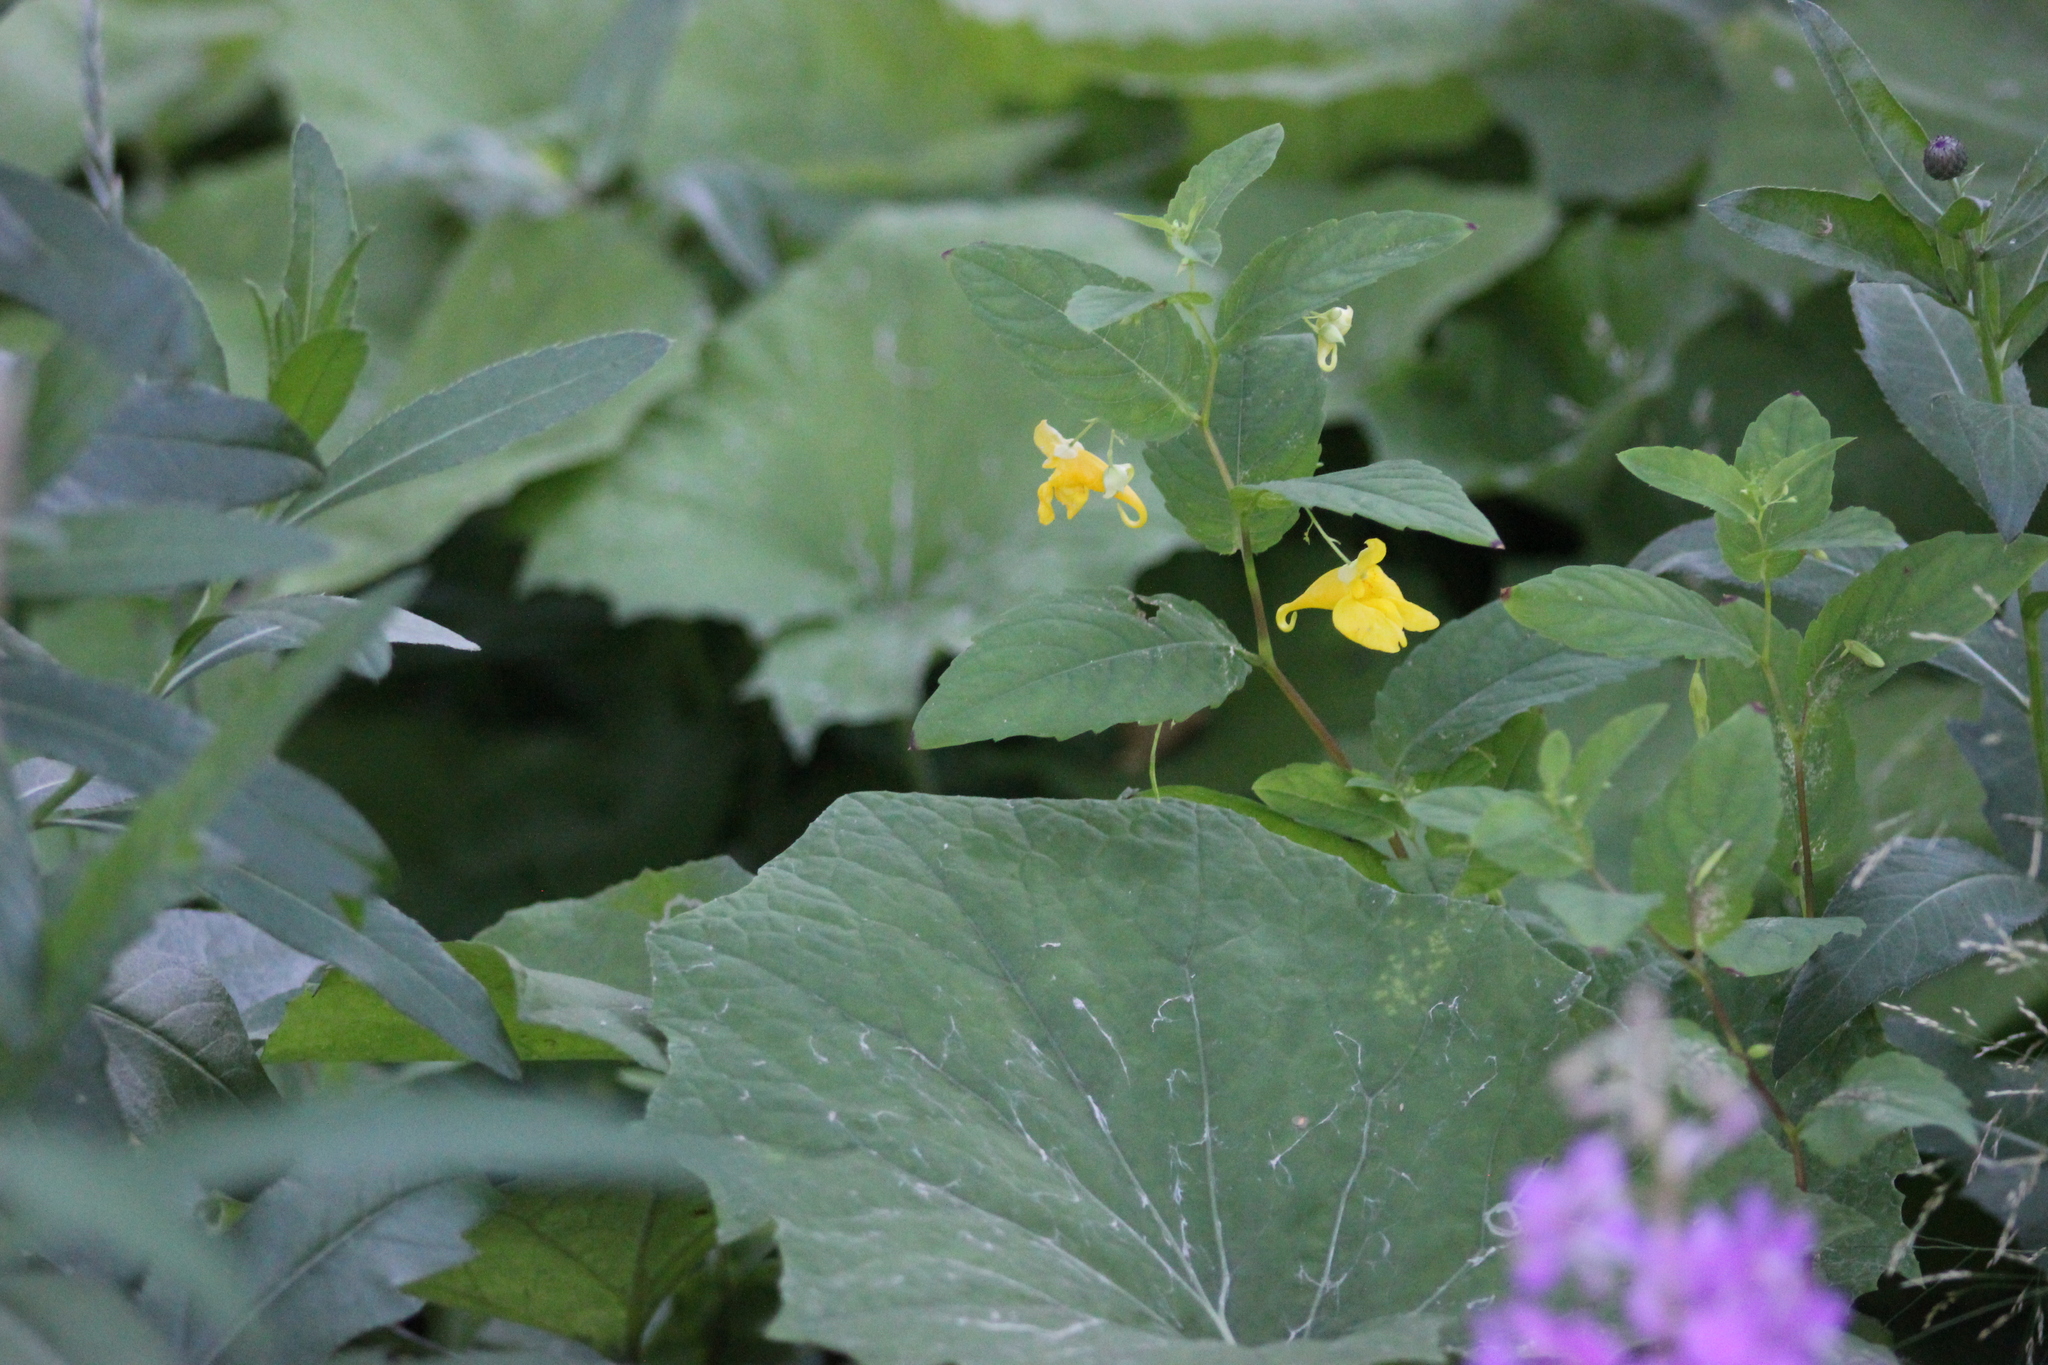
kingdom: Plantae
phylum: Tracheophyta
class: Magnoliopsida
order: Ericales
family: Balsaminaceae
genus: Impatiens
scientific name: Impatiens noli-tangere
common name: Touch-me-not balsam
